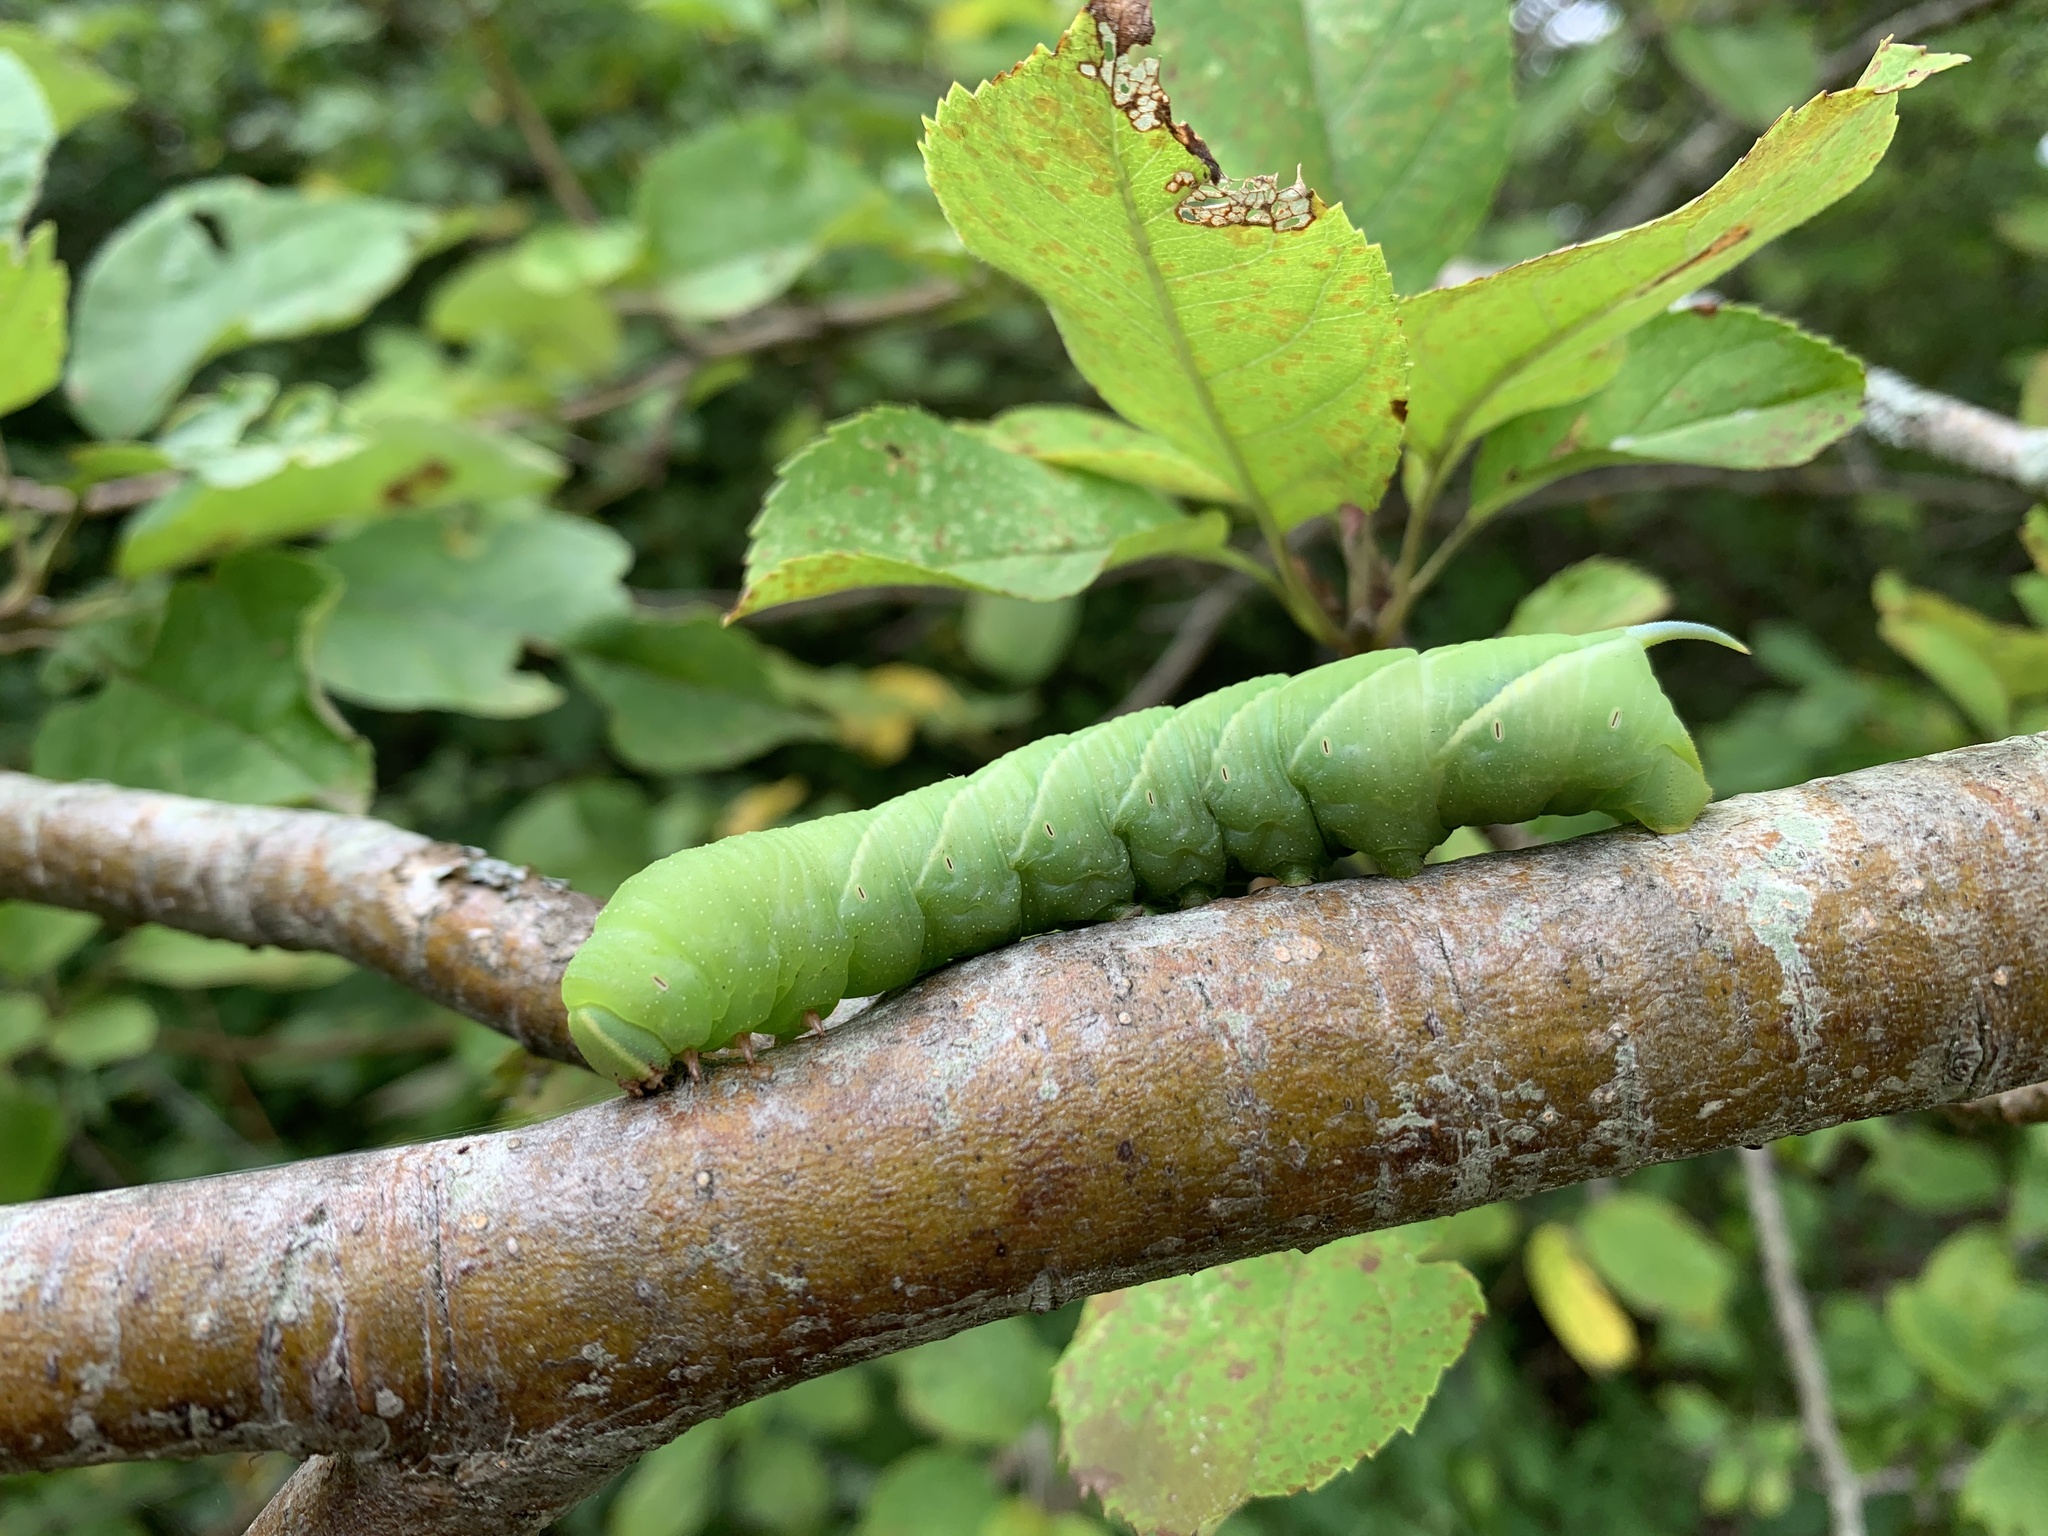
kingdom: Animalia
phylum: Arthropoda
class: Insecta
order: Lepidoptera
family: Sphingidae
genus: Sphinx
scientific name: Sphinx chersis
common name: Great ash sphinx
